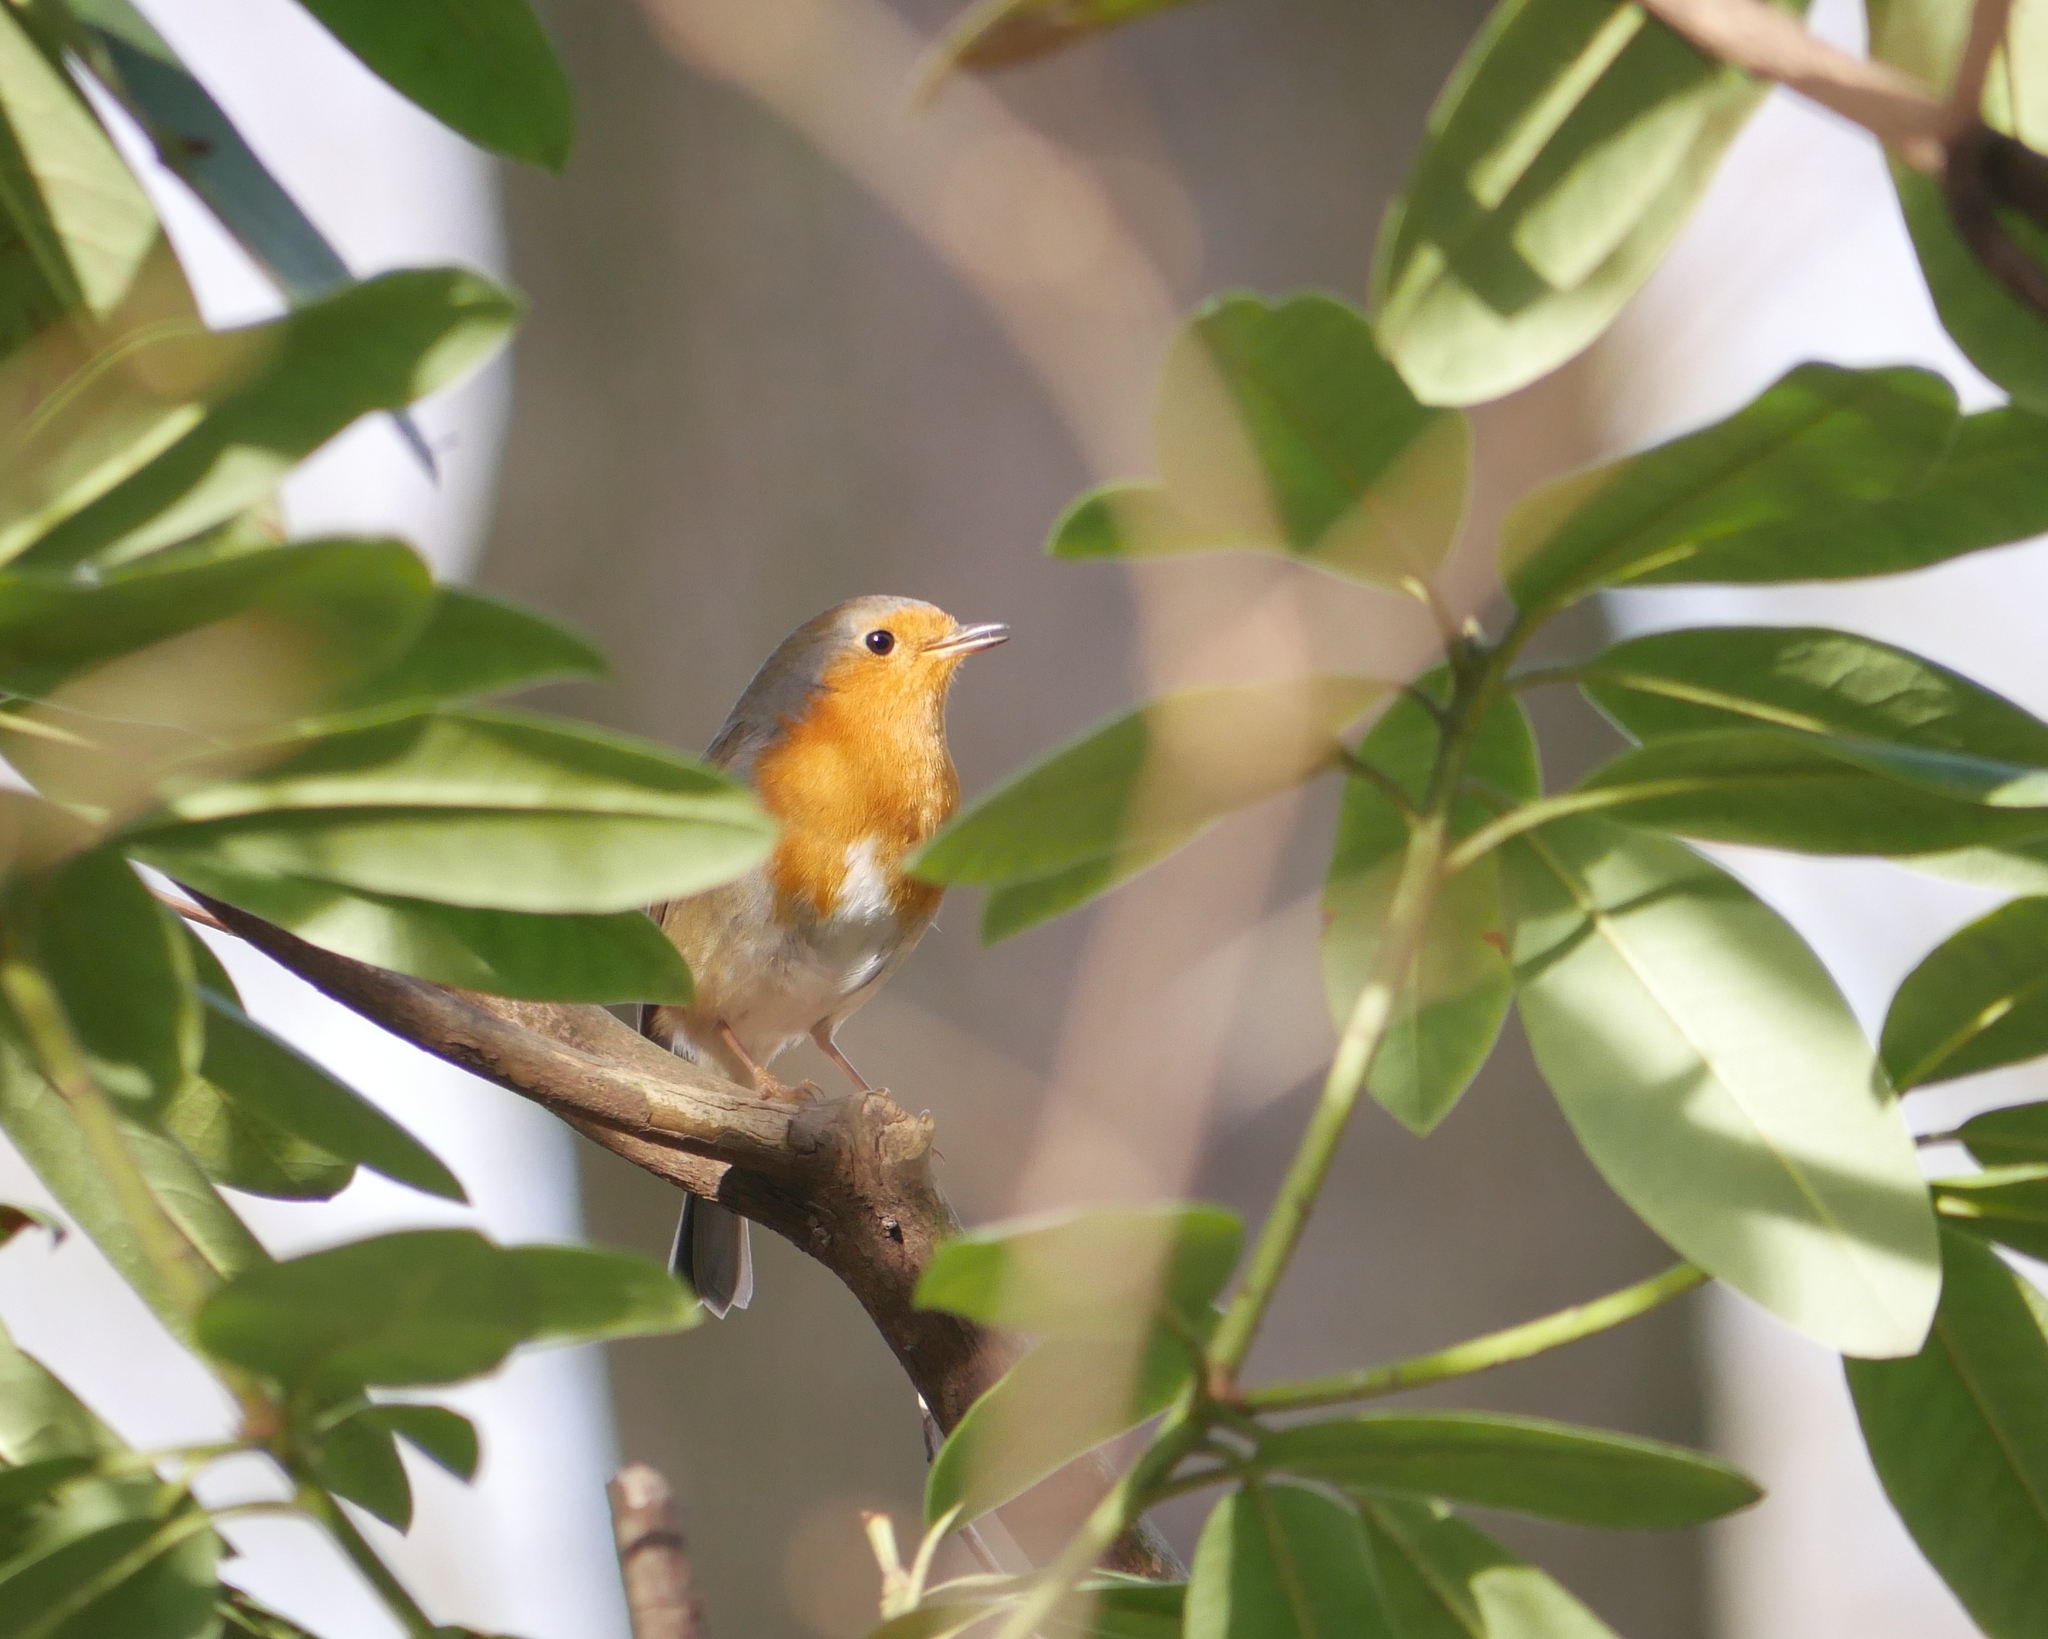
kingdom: Animalia
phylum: Chordata
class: Aves
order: Passeriformes
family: Muscicapidae
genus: Erithacus
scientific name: Erithacus rubecula
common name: European robin
